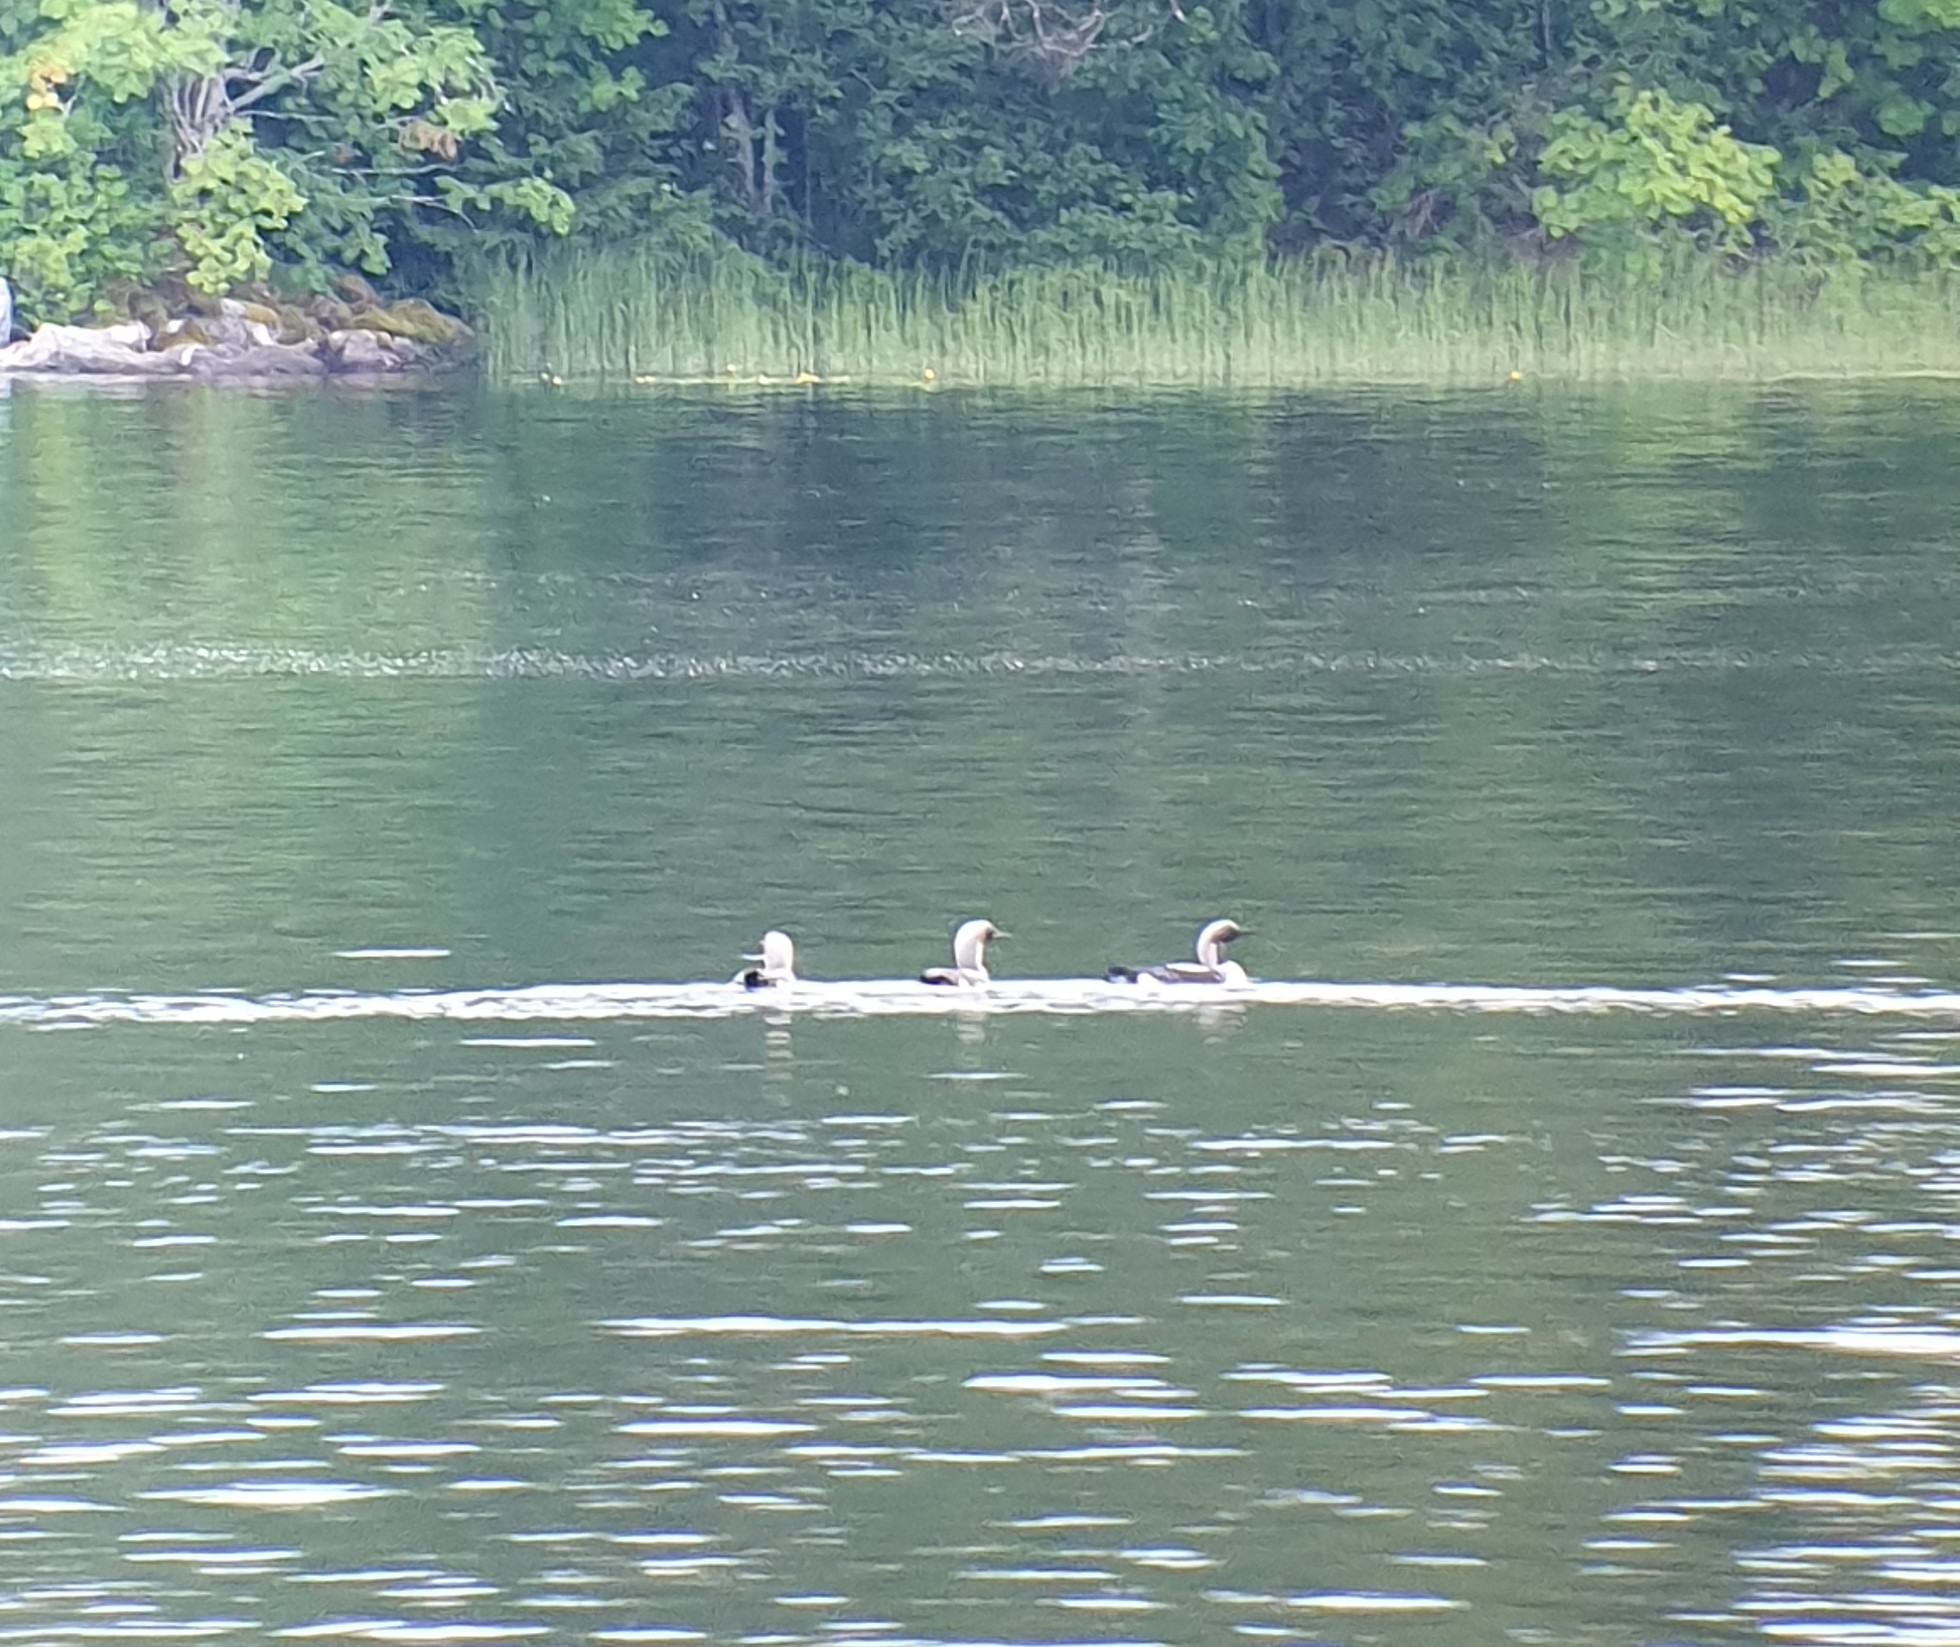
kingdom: Animalia
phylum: Chordata
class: Aves
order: Gaviiformes
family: Gaviidae
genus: Gavia
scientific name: Gavia arctica
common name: Black-throated loon
